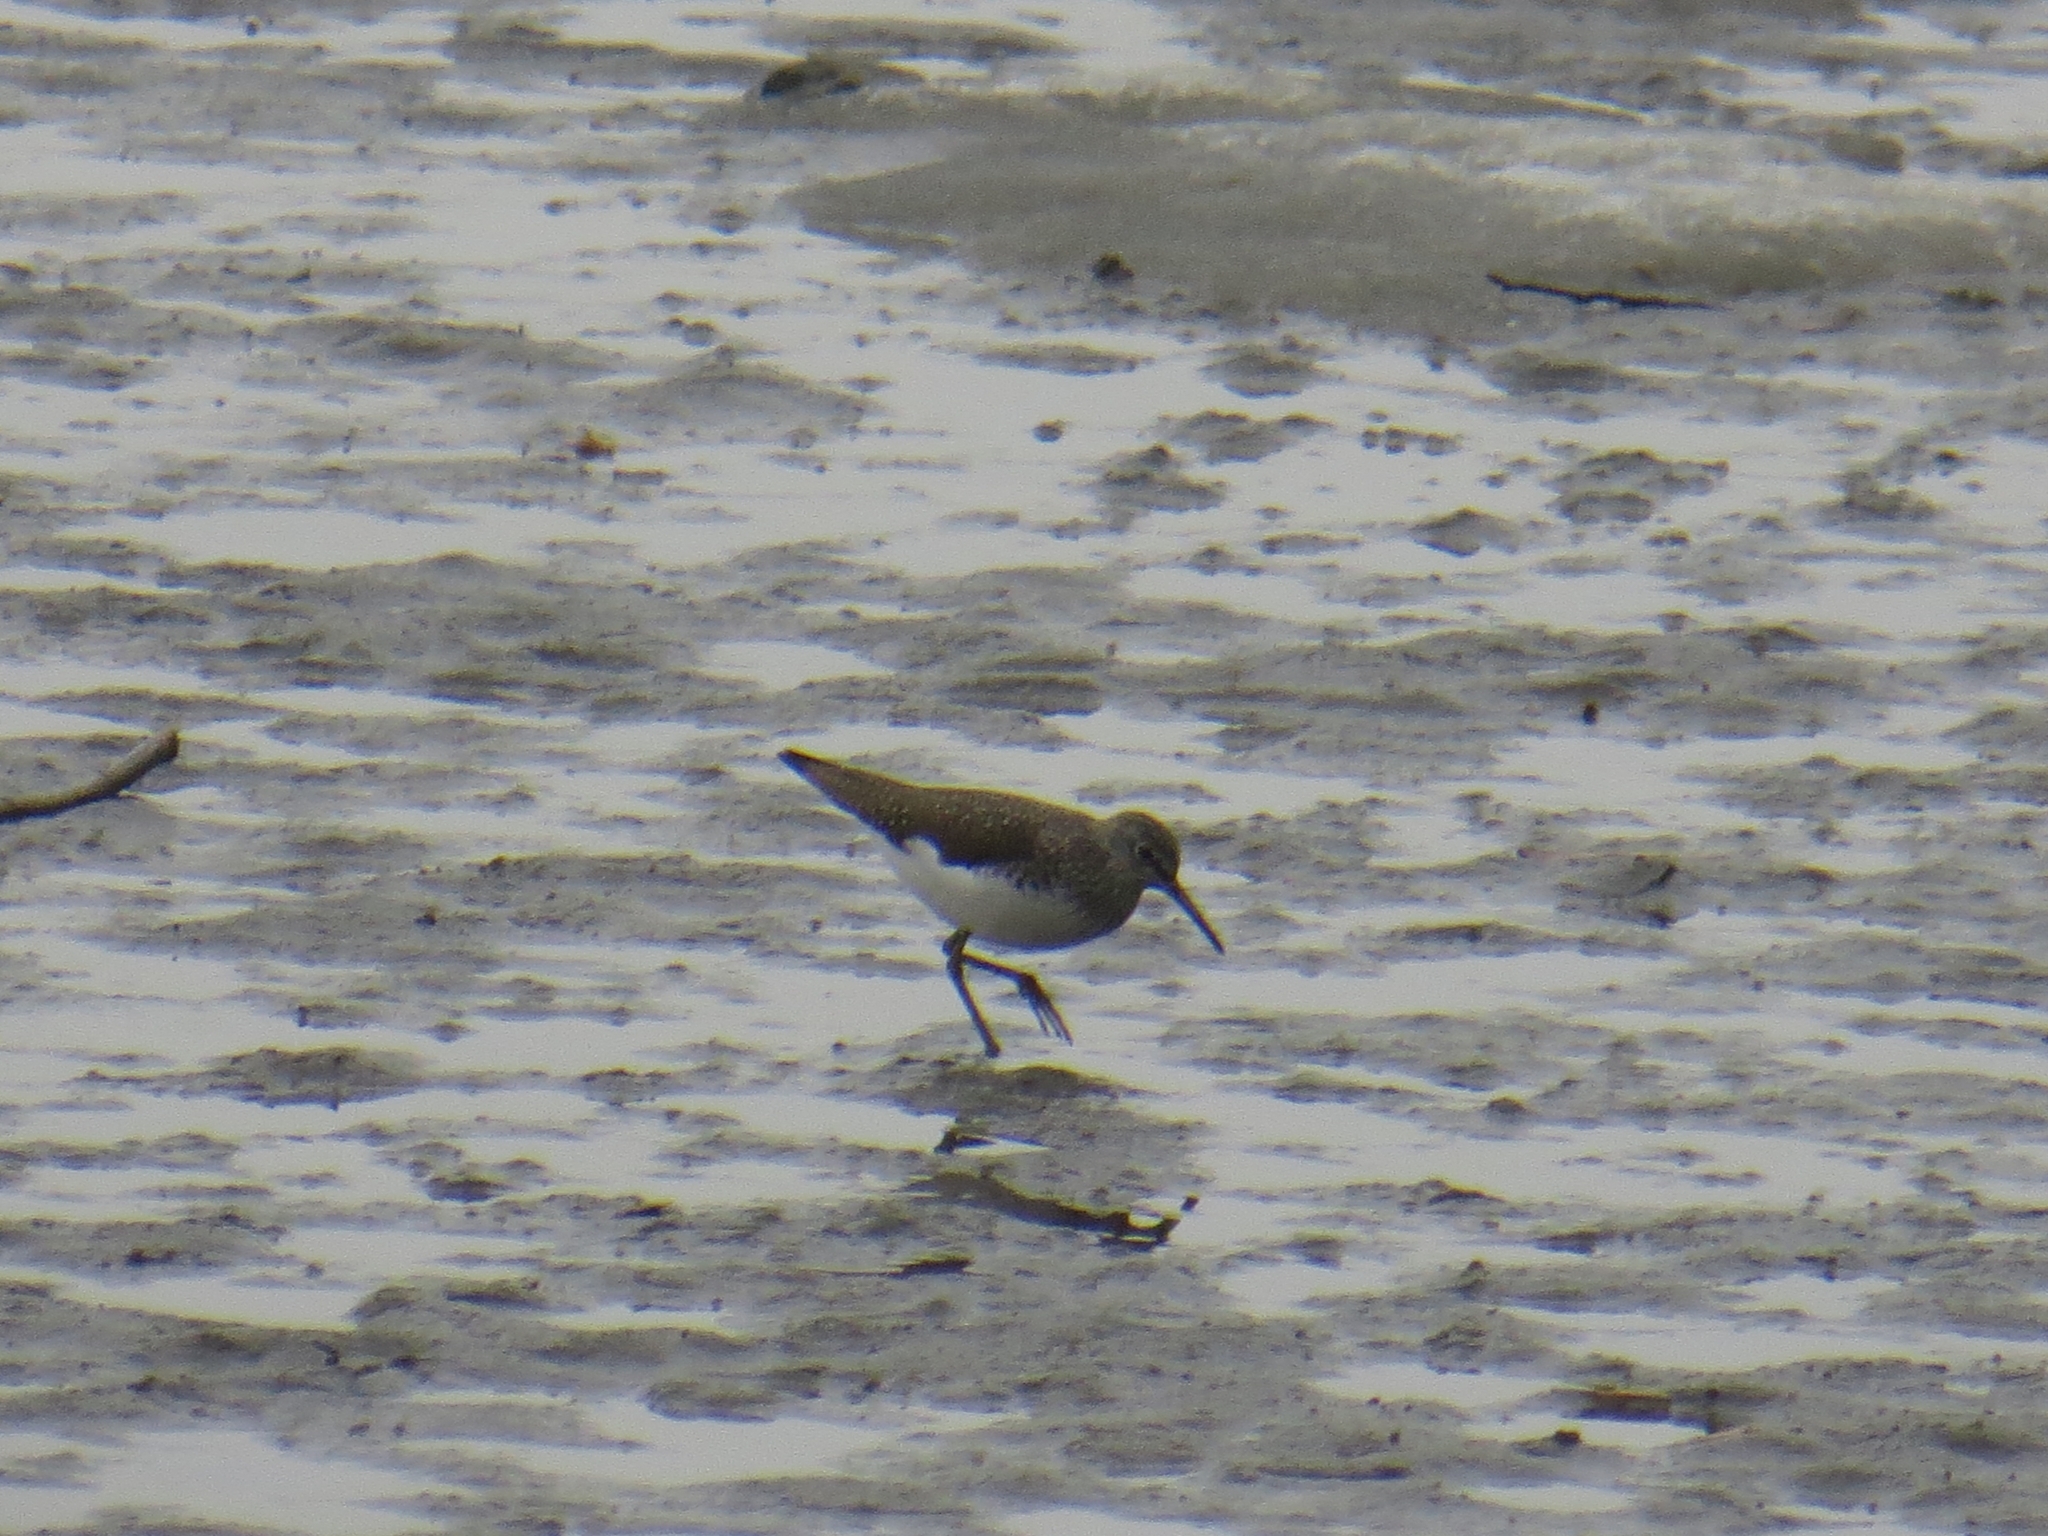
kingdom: Animalia
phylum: Chordata
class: Aves
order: Charadriiformes
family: Scolopacidae
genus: Tringa
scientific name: Tringa ochropus
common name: Green sandpiper
